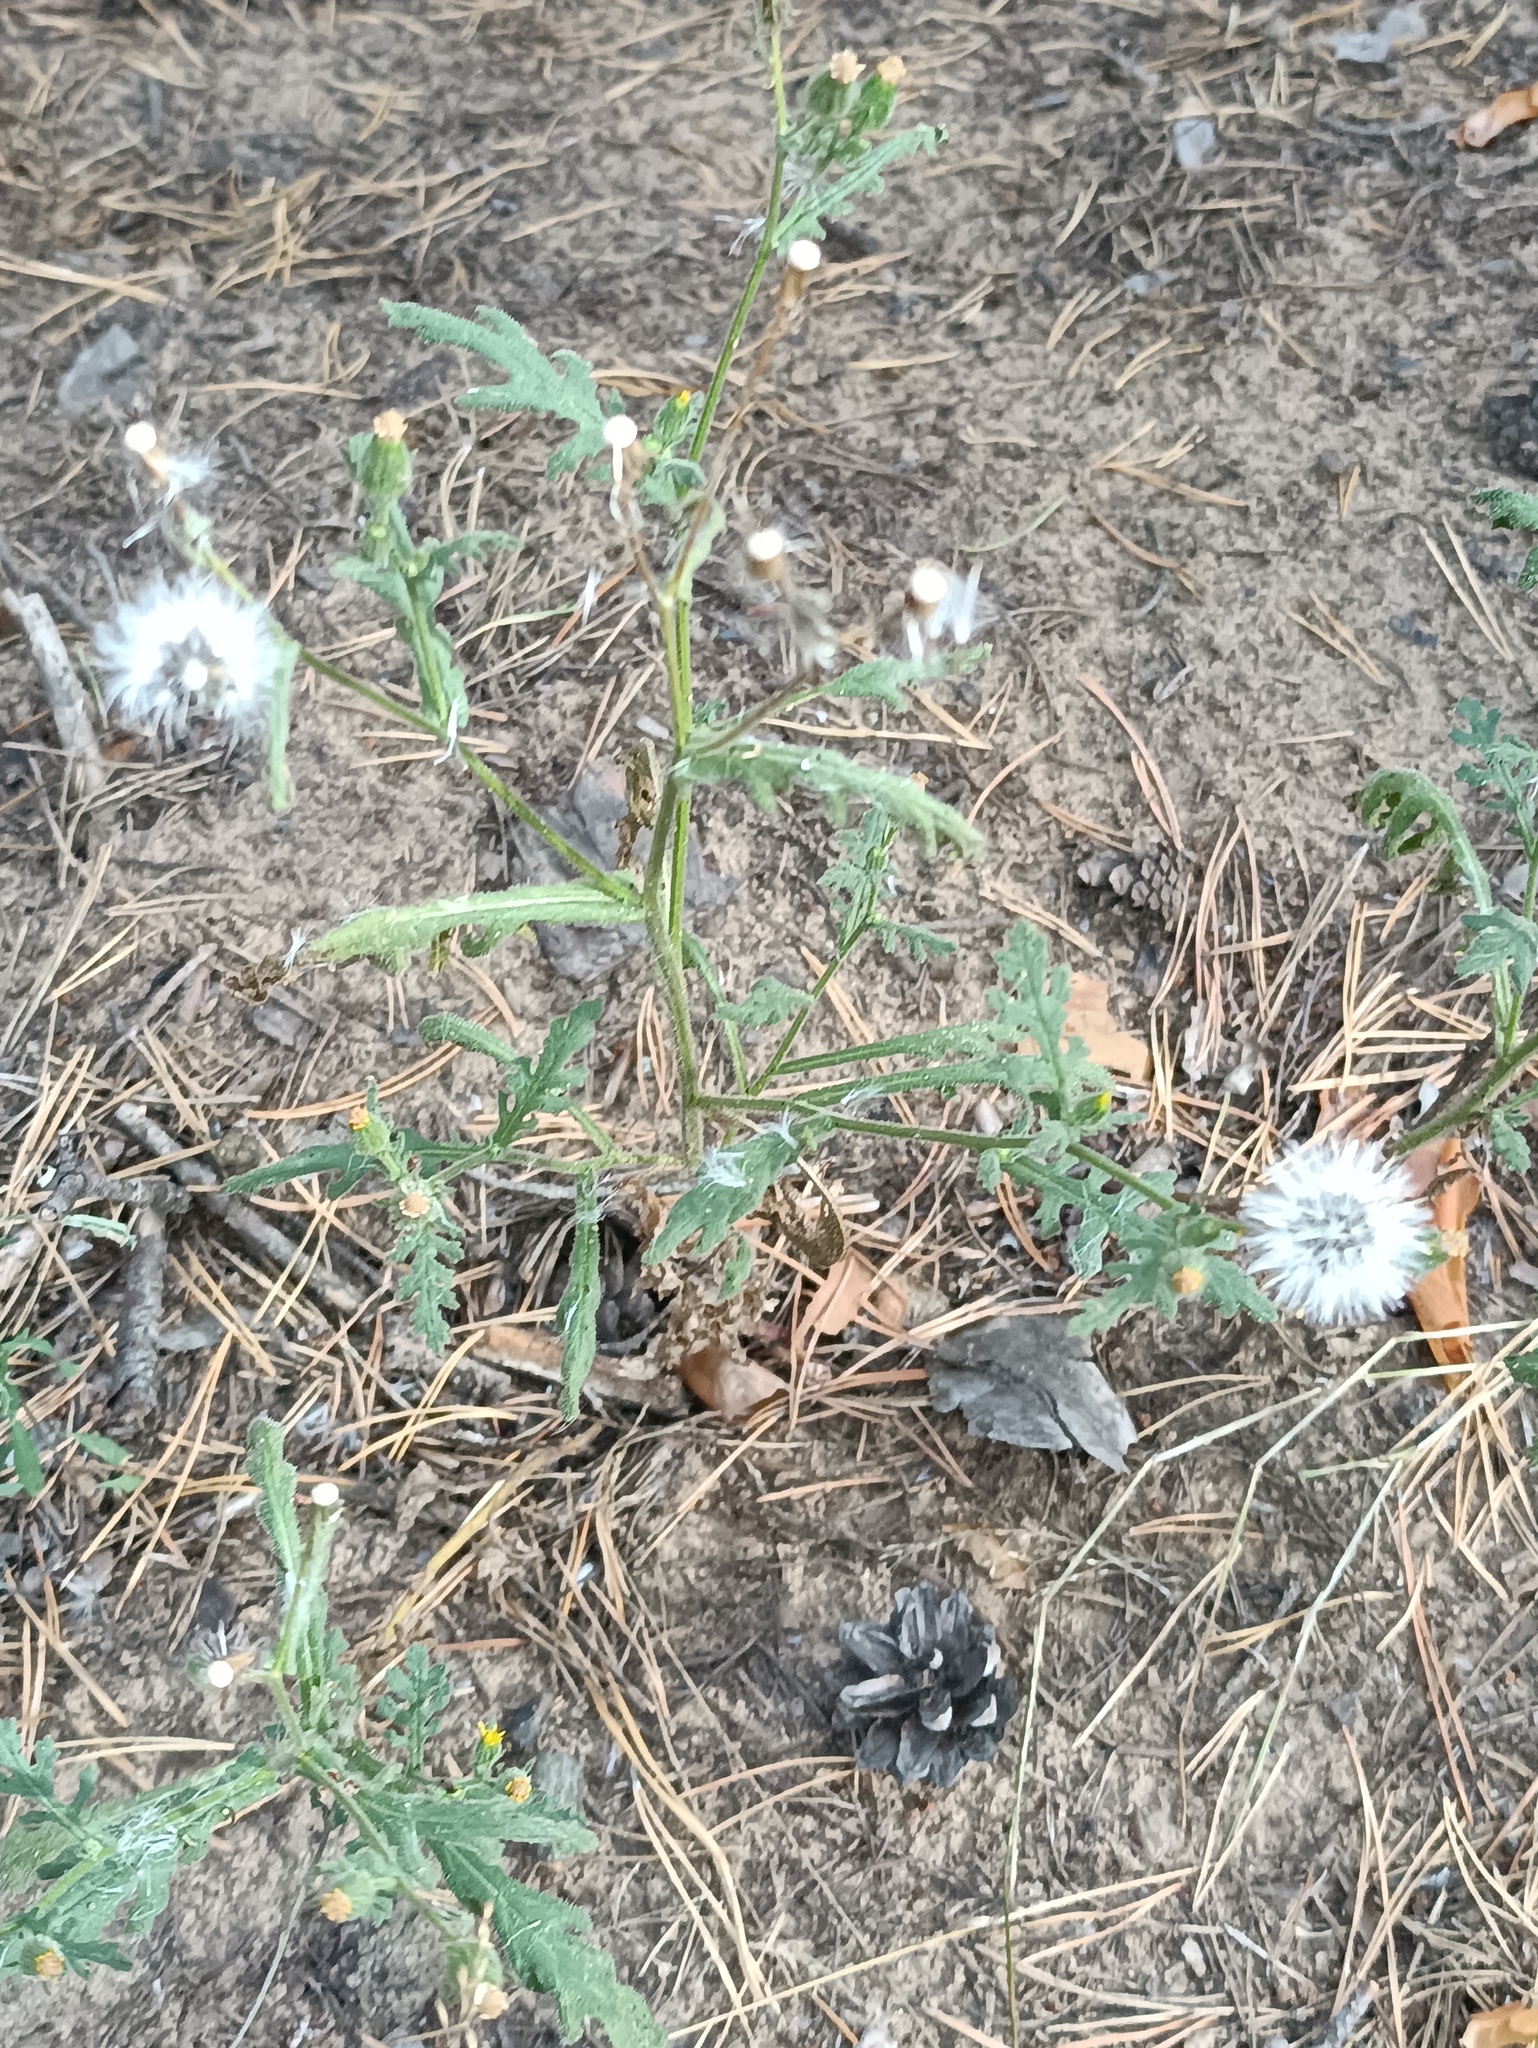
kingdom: Plantae
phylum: Tracheophyta
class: Magnoliopsida
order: Asterales
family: Asteraceae
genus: Senecio
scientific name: Senecio viscosus
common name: Sticky groundsel
